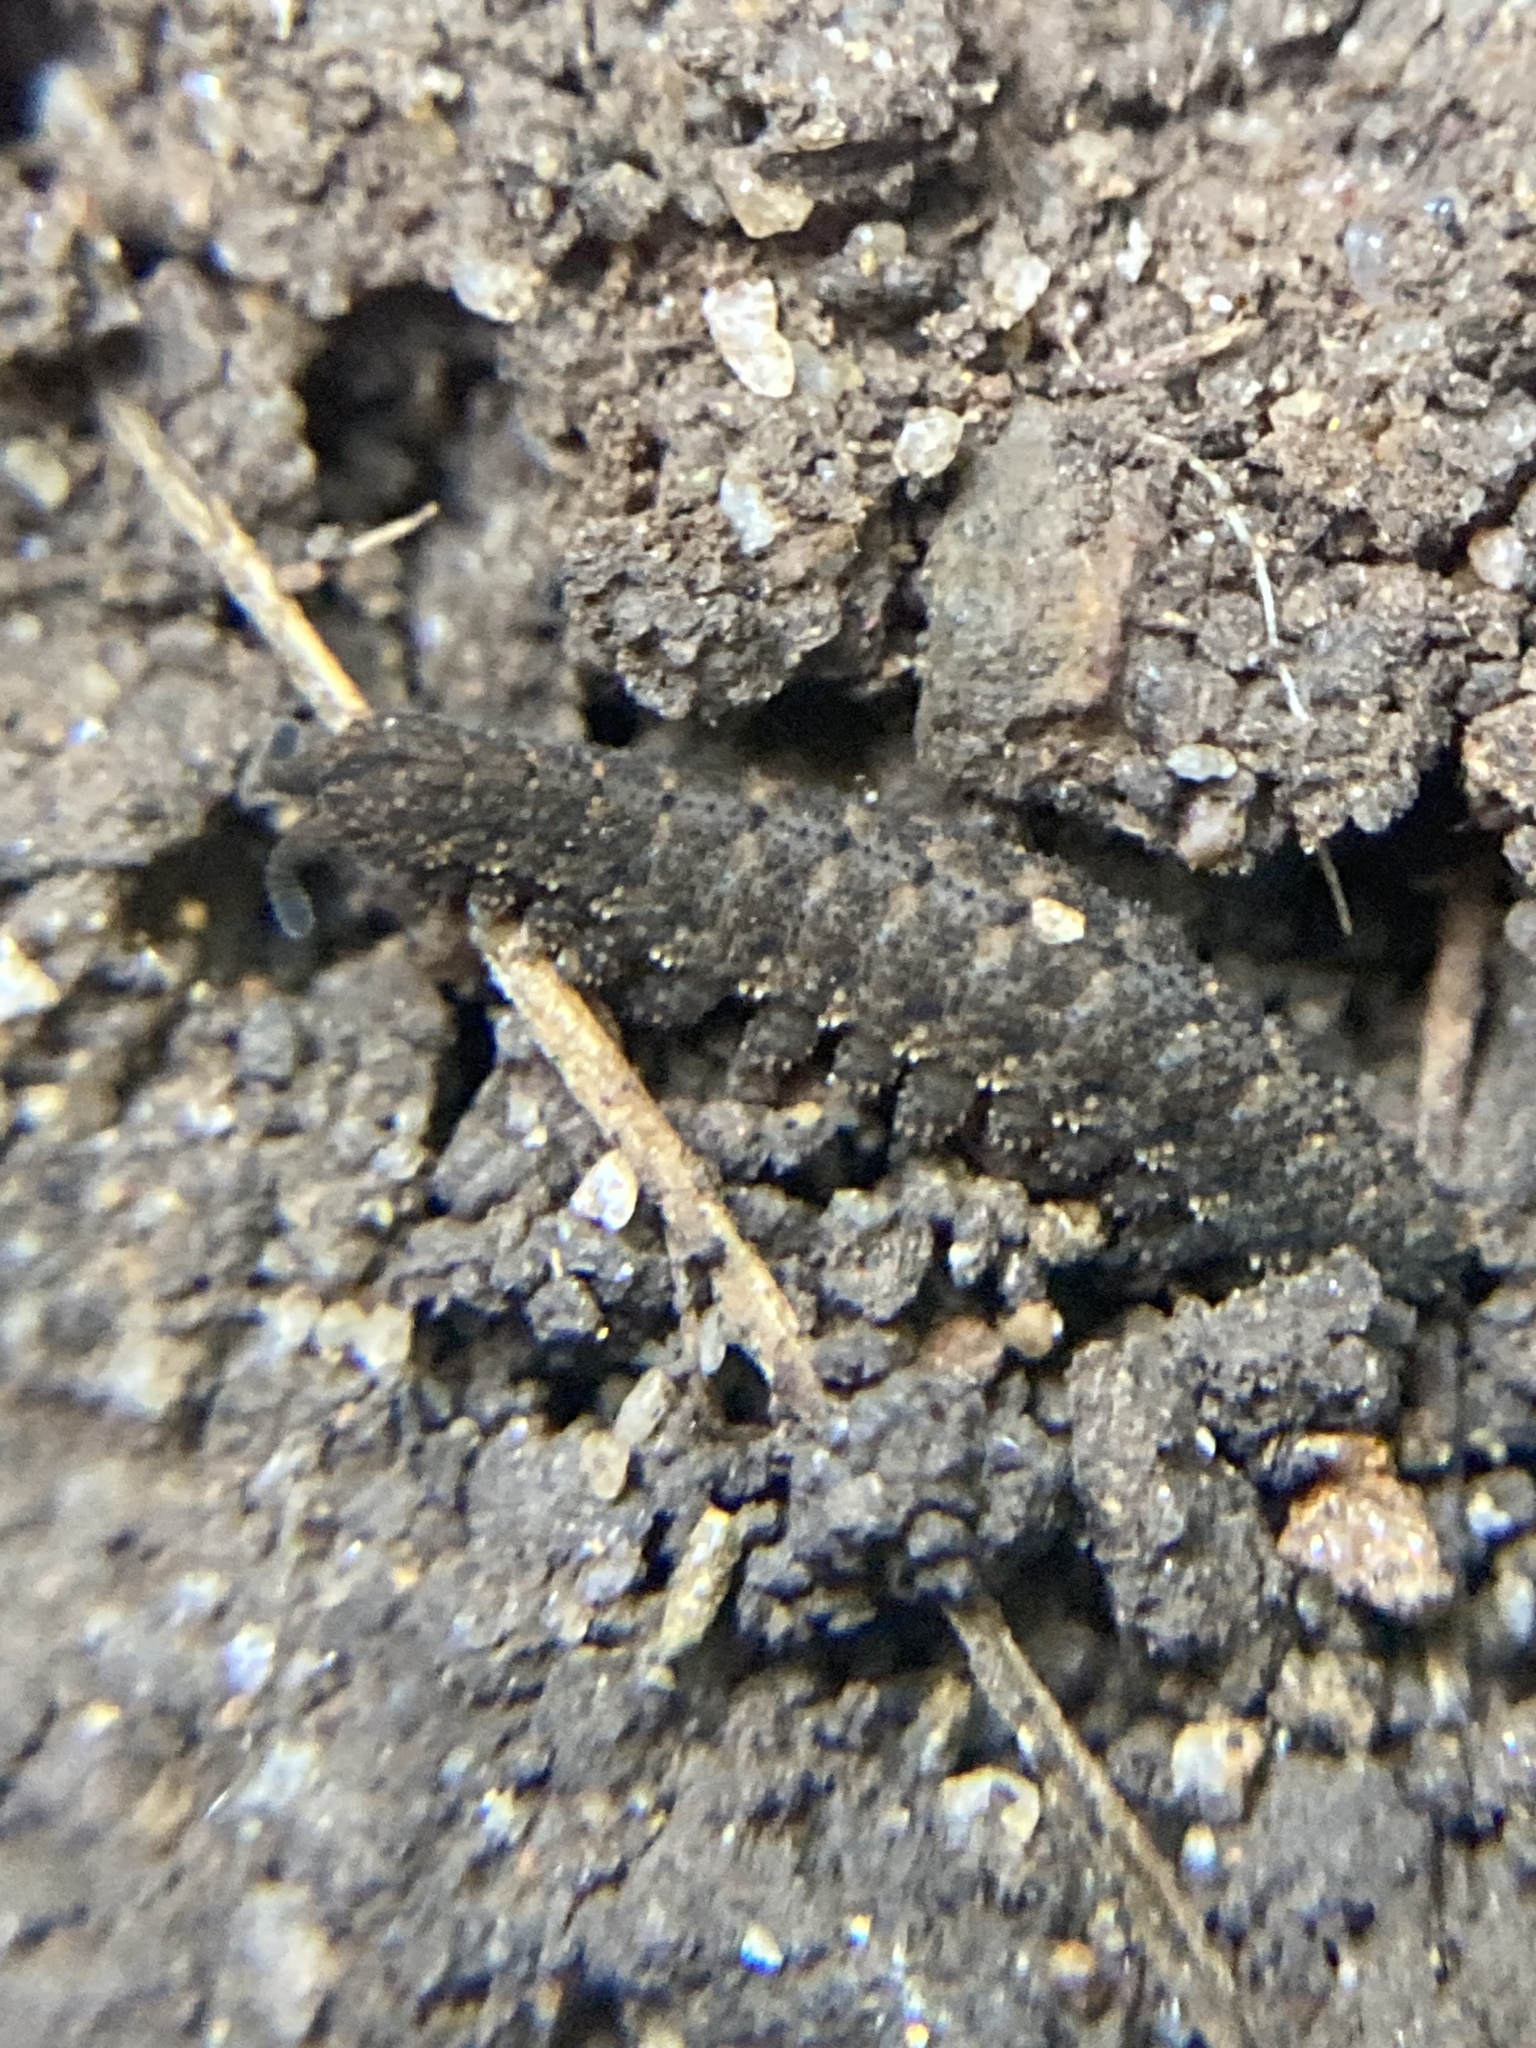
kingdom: Animalia
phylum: Onychophora
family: Peripatopsidae
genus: Anoplokaros
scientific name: Anoplokaros keerensis
